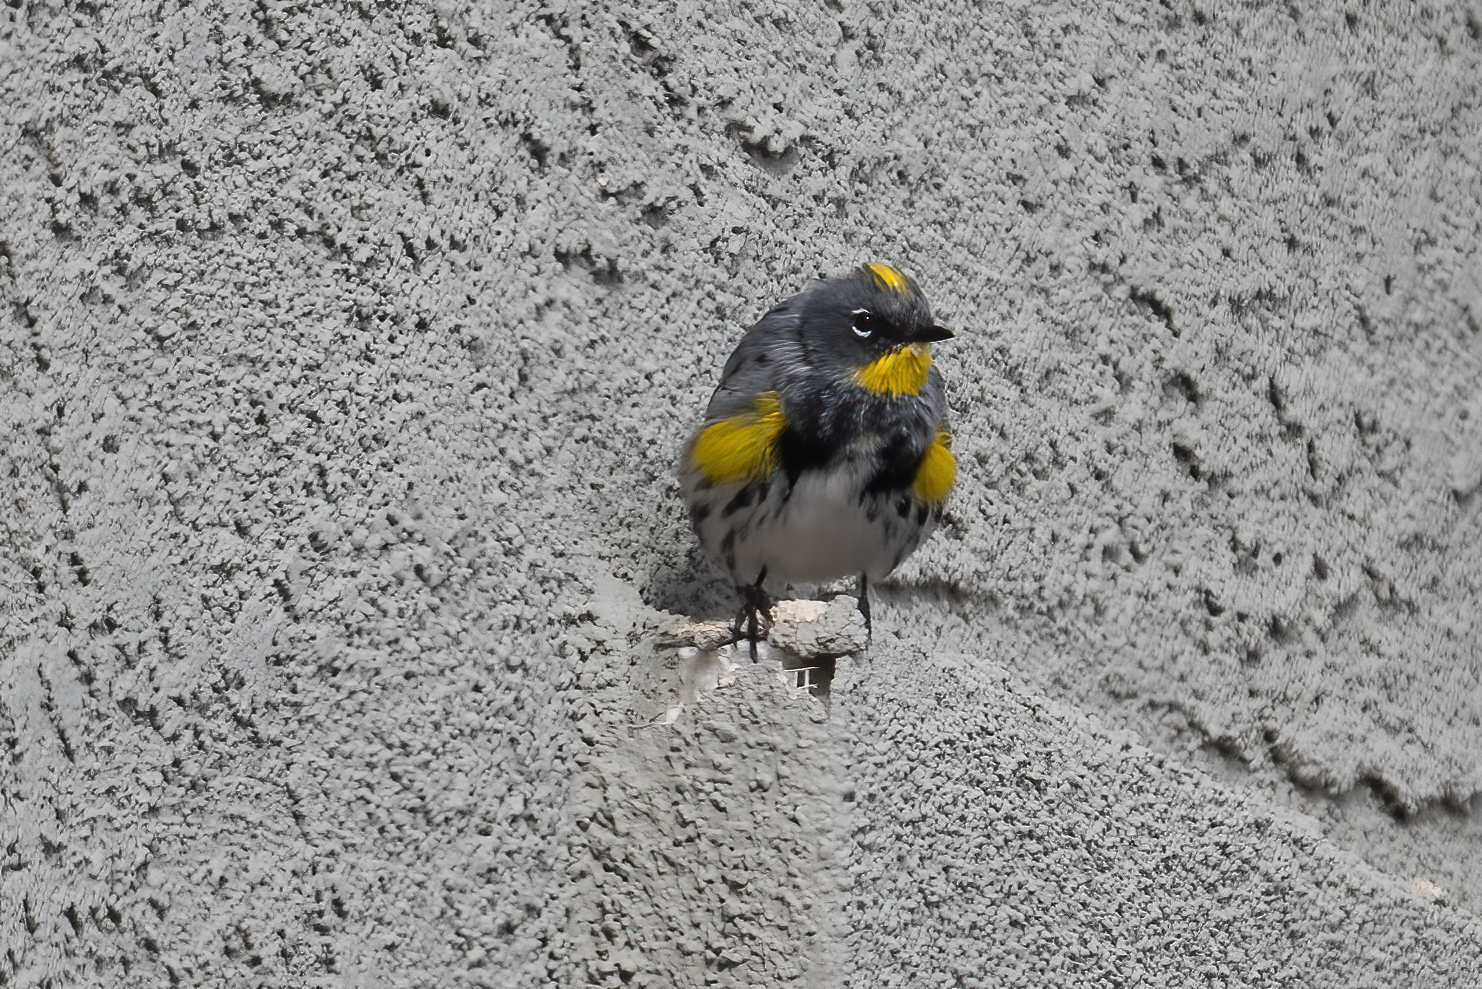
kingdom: Animalia
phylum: Chordata
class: Aves
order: Passeriformes
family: Parulidae
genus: Setophaga
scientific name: Setophaga auduboni
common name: Audubon's warbler
